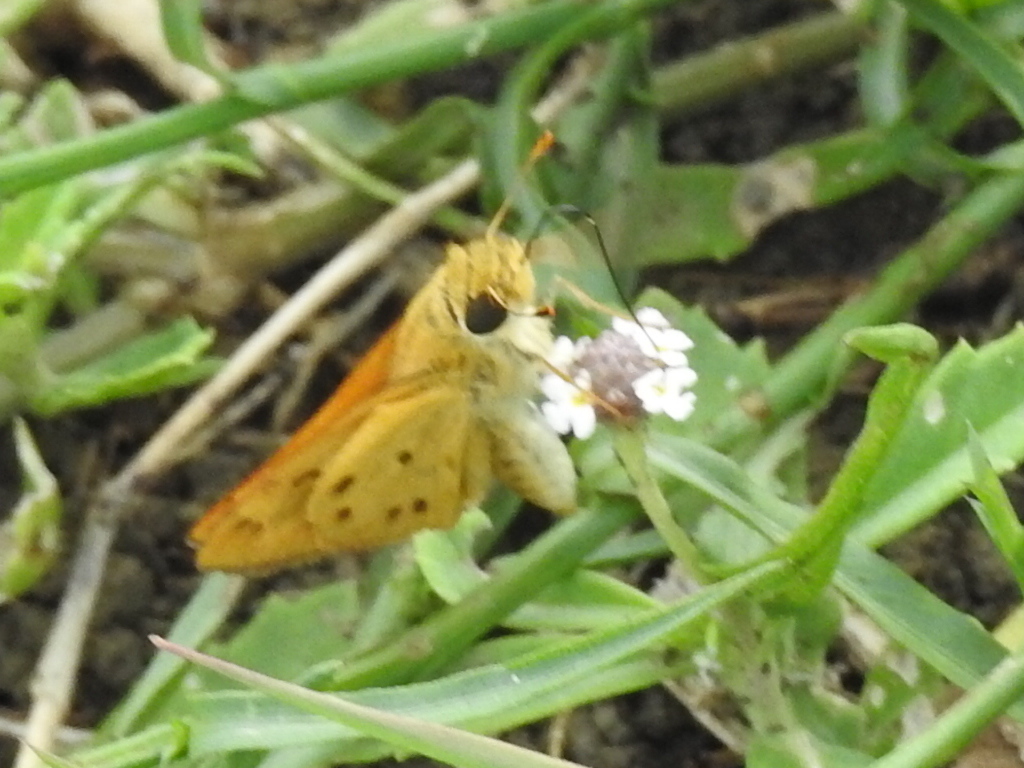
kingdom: Animalia
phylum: Arthropoda
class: Insecta
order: Lepidoptera
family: Hesperiidae
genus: Hylephila
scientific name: Hylephila phyleus
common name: Fiery skipper
